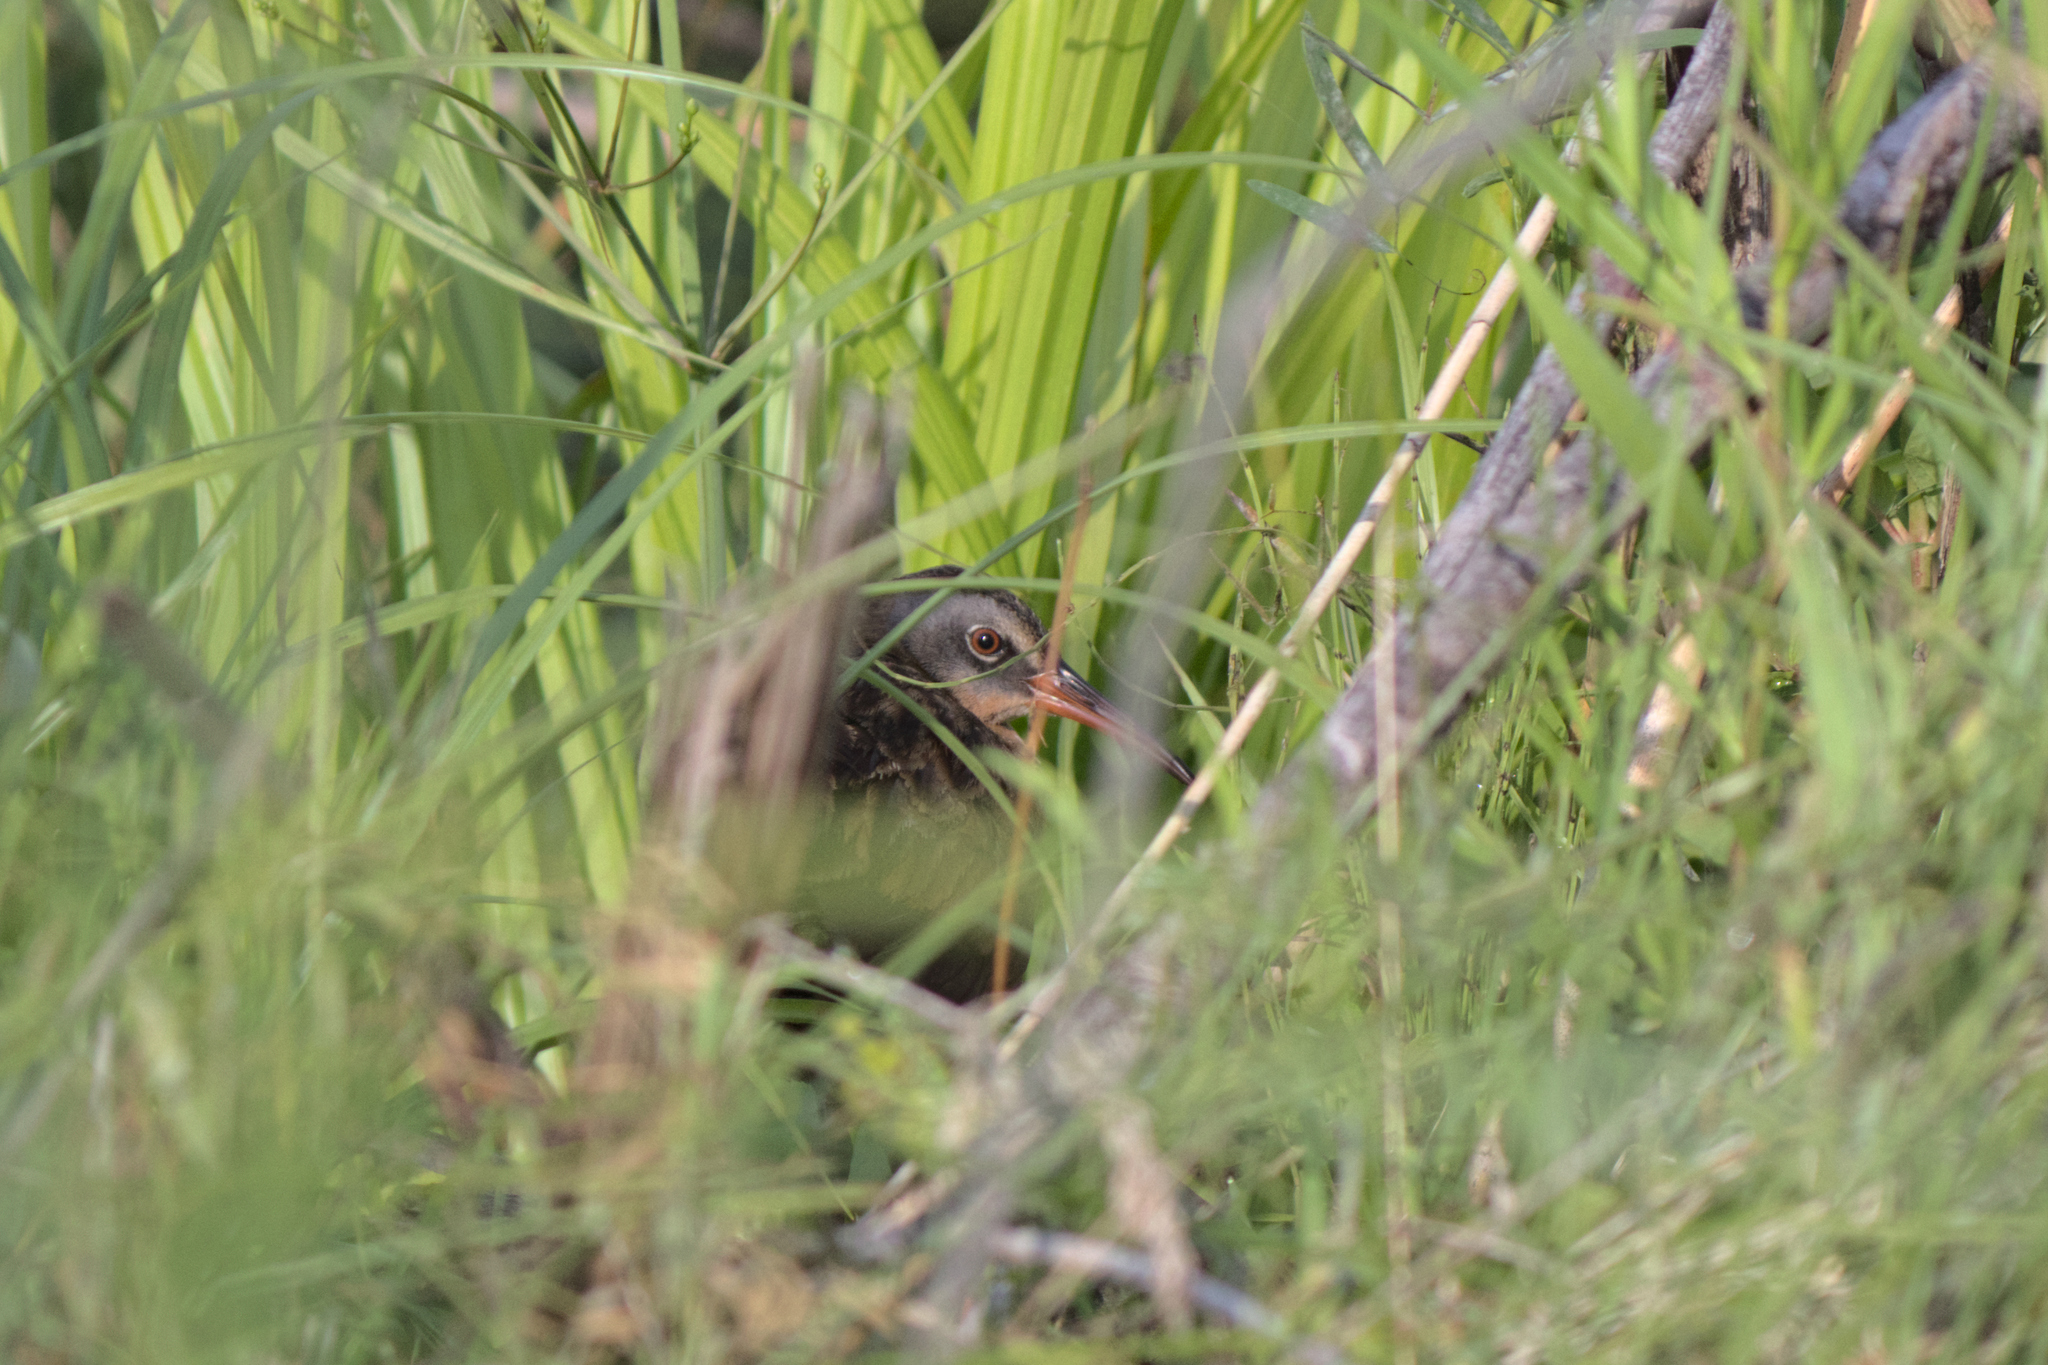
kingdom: Animalia
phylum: Chordata
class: Aves
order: Gruiformes
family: Rallidae
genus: Rallus
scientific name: Rallus limicola
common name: Virginia rail
